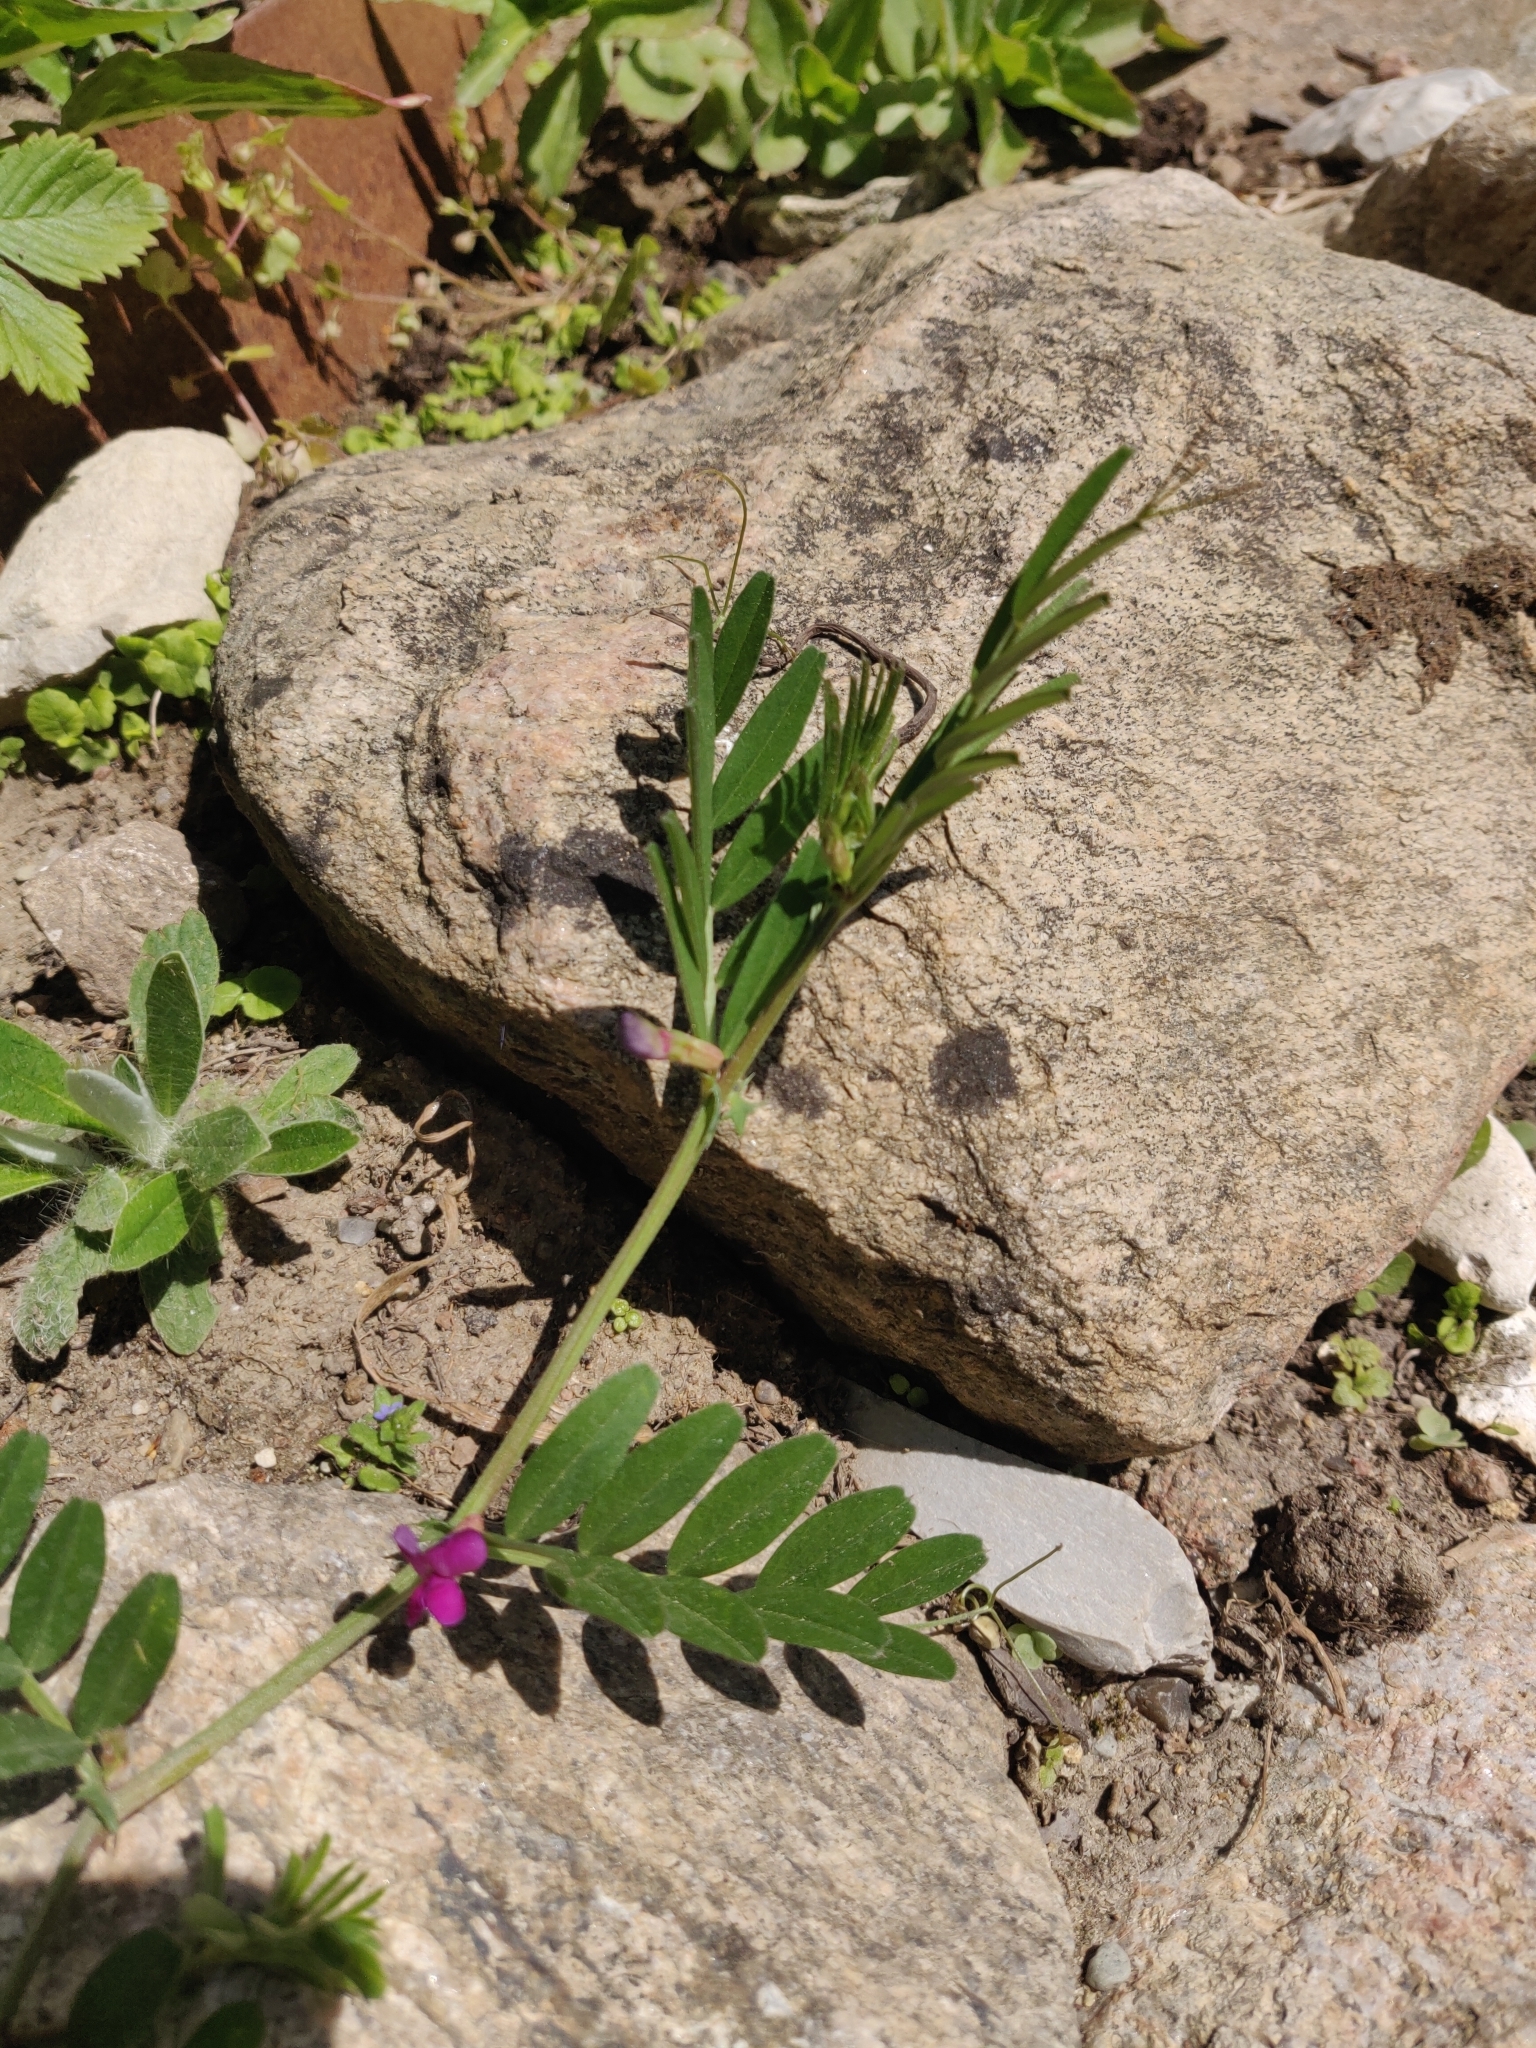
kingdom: Plantae
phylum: Tracheophyta
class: Magnoliopsida
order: Fabales
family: Fabaceae
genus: Vicia
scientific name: Vicia sativa
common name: Garden vetch
